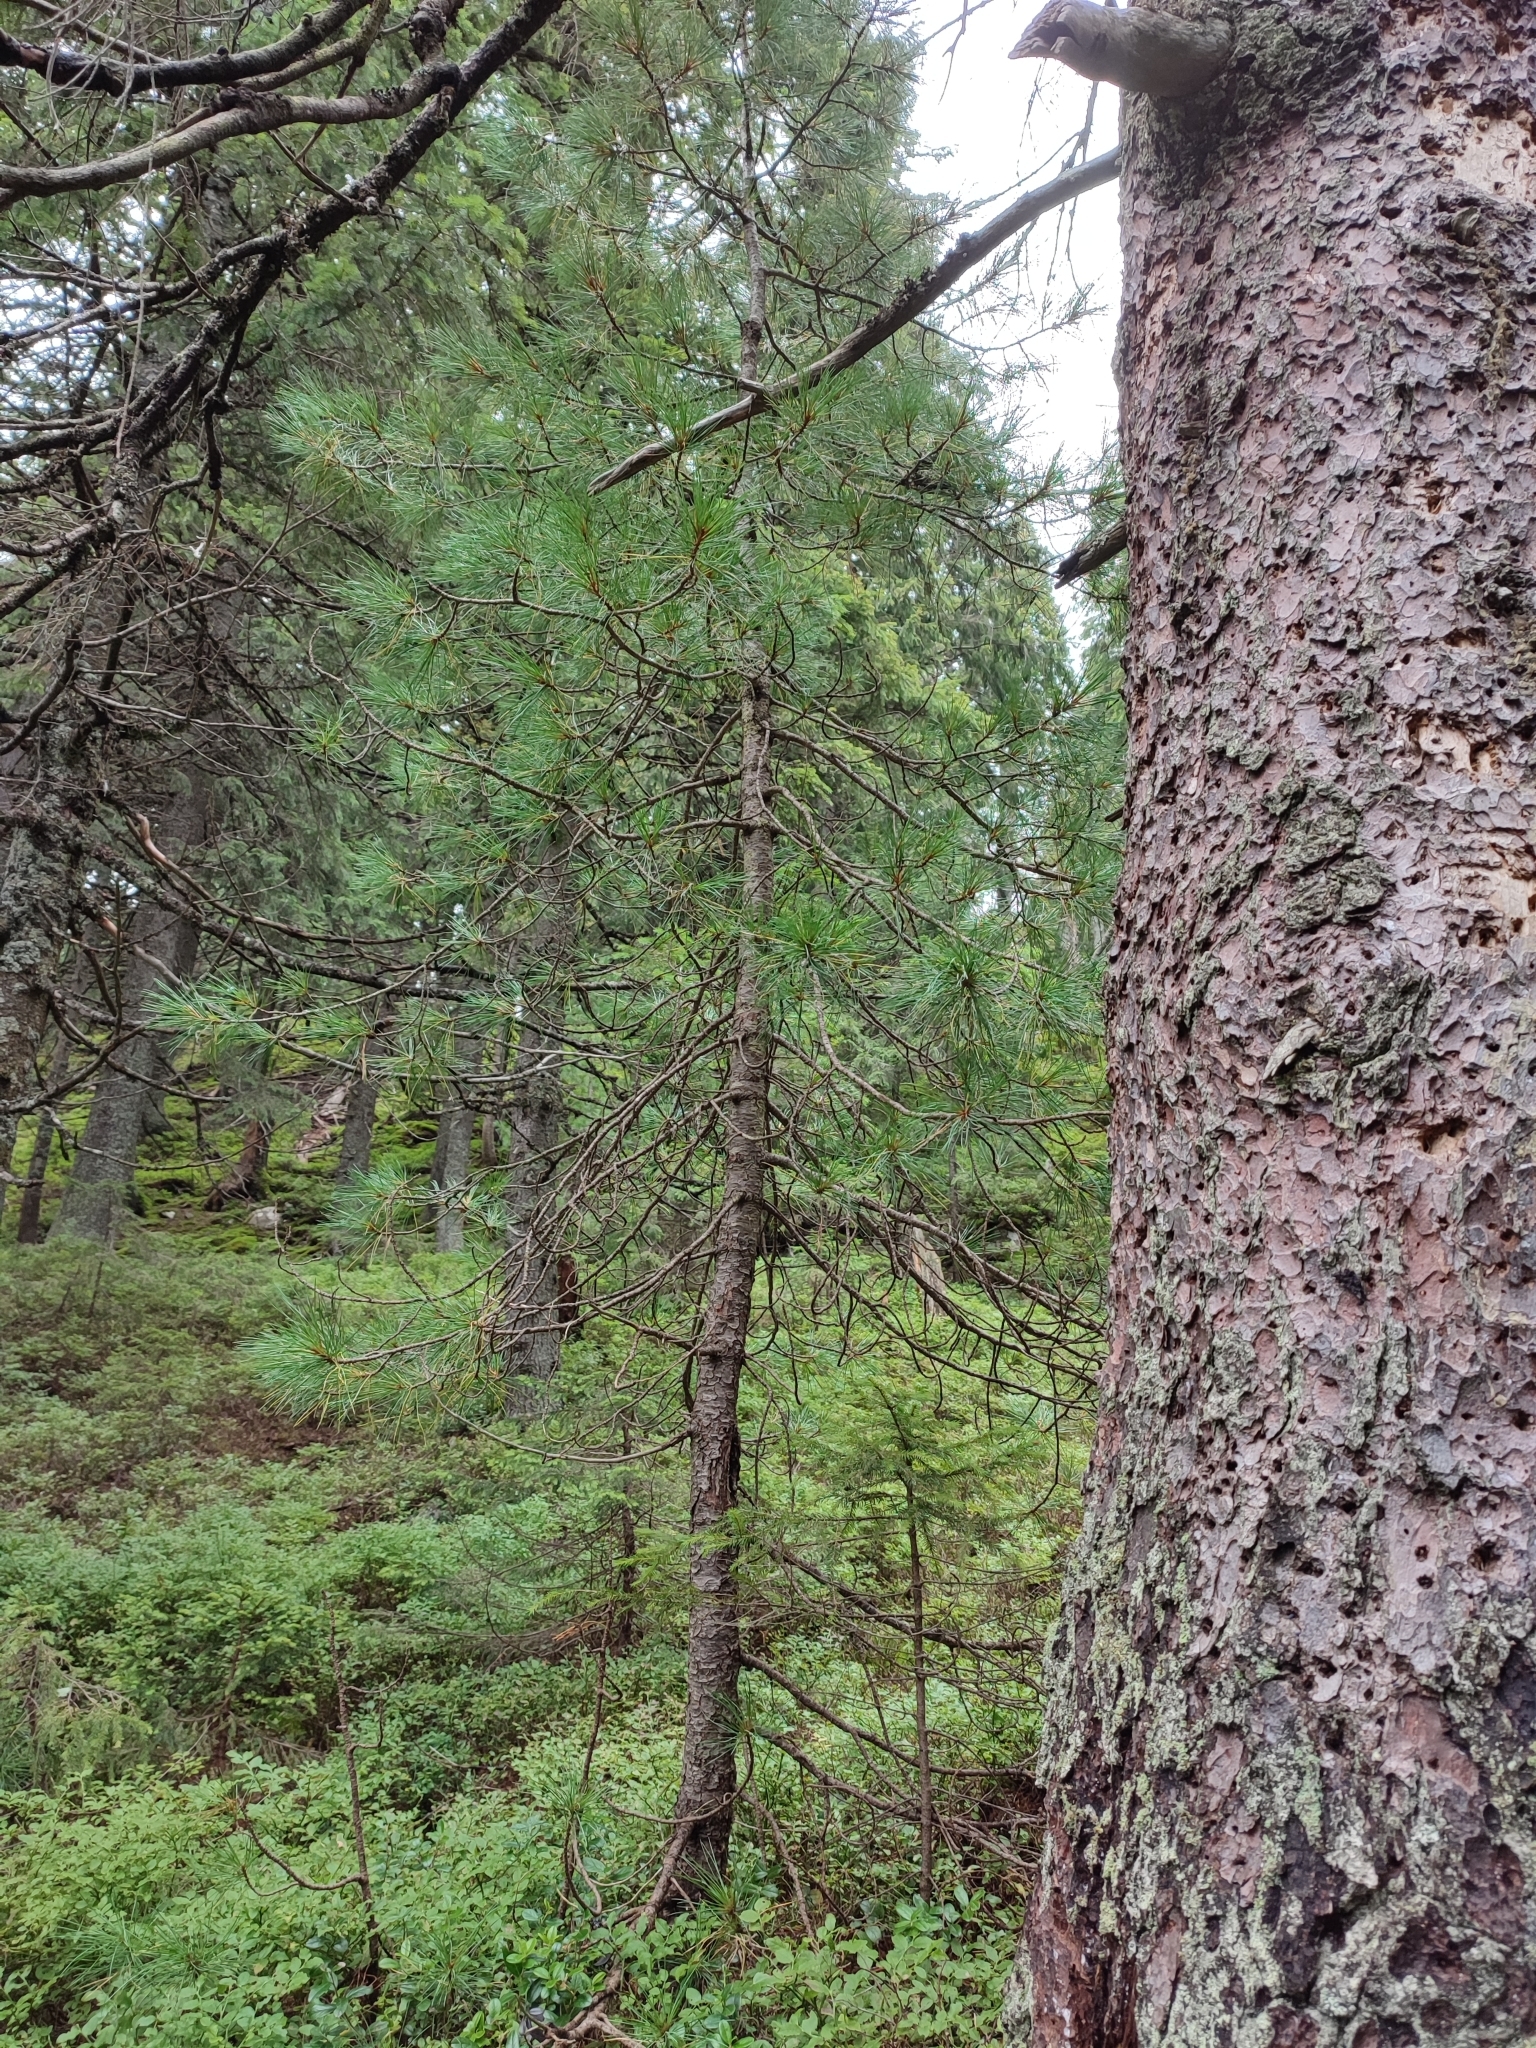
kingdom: Plantae
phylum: Tracheophyta
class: Pinopsida
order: Pinales
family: Pinaceae
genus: Pinus
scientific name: Pinus cembra
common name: Arolla pine
